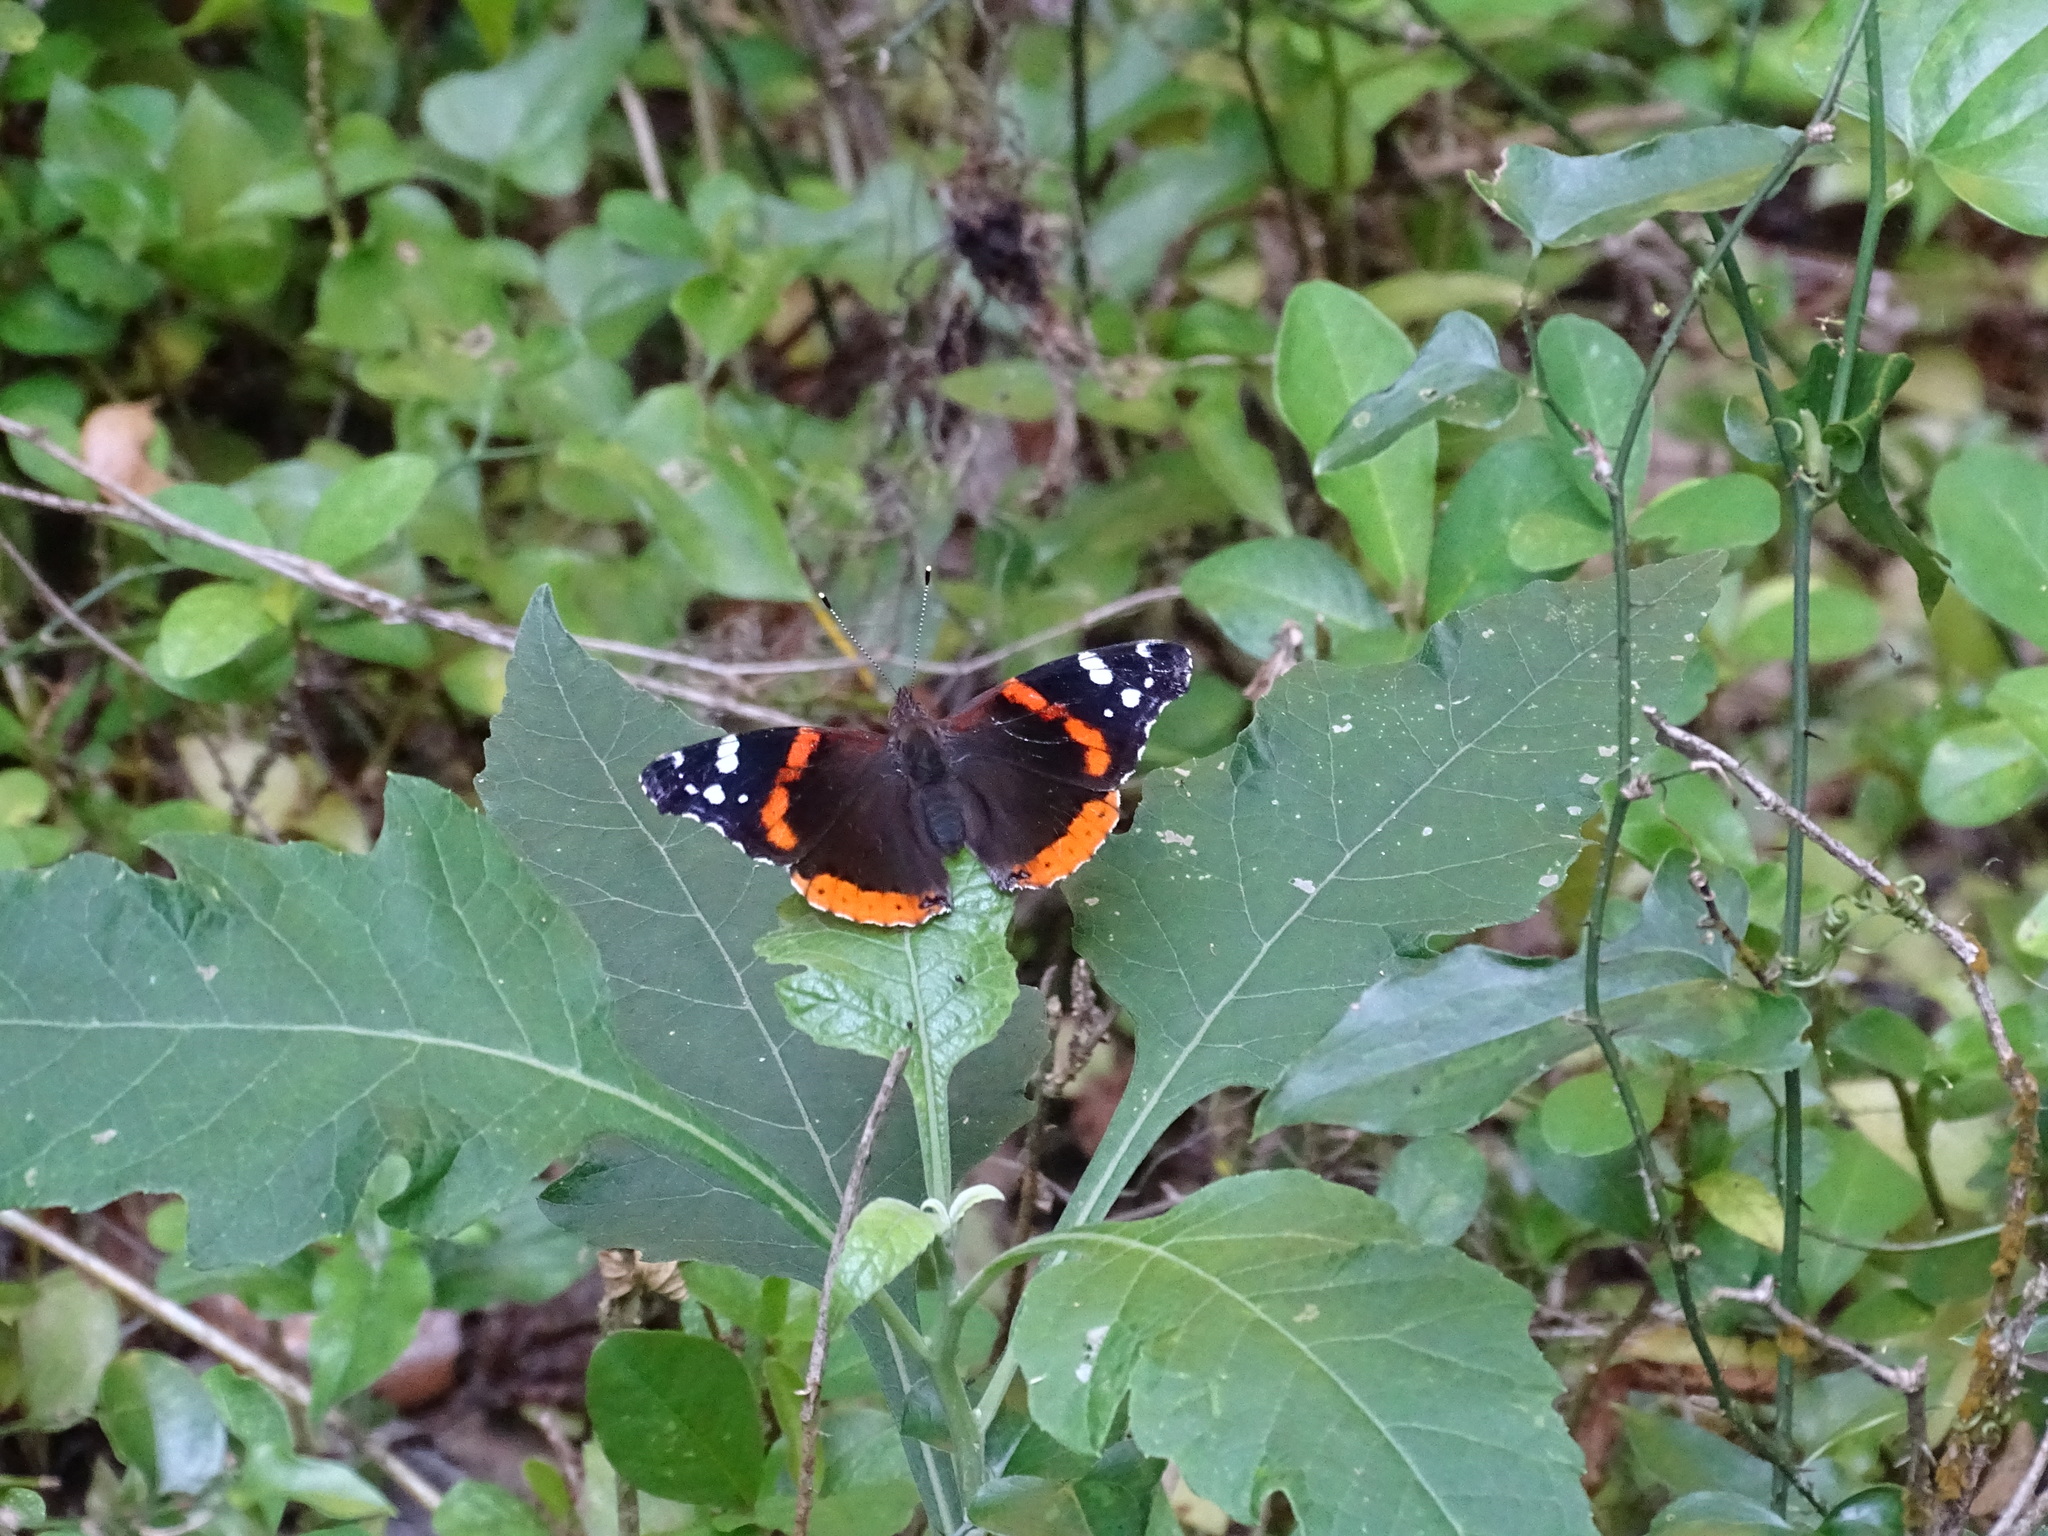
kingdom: Animalia
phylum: Arthropoda
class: Insecta
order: Lepidoptera
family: Nymphalidae
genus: Vanessa
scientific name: Vanessa atalanta
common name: Red admiral
